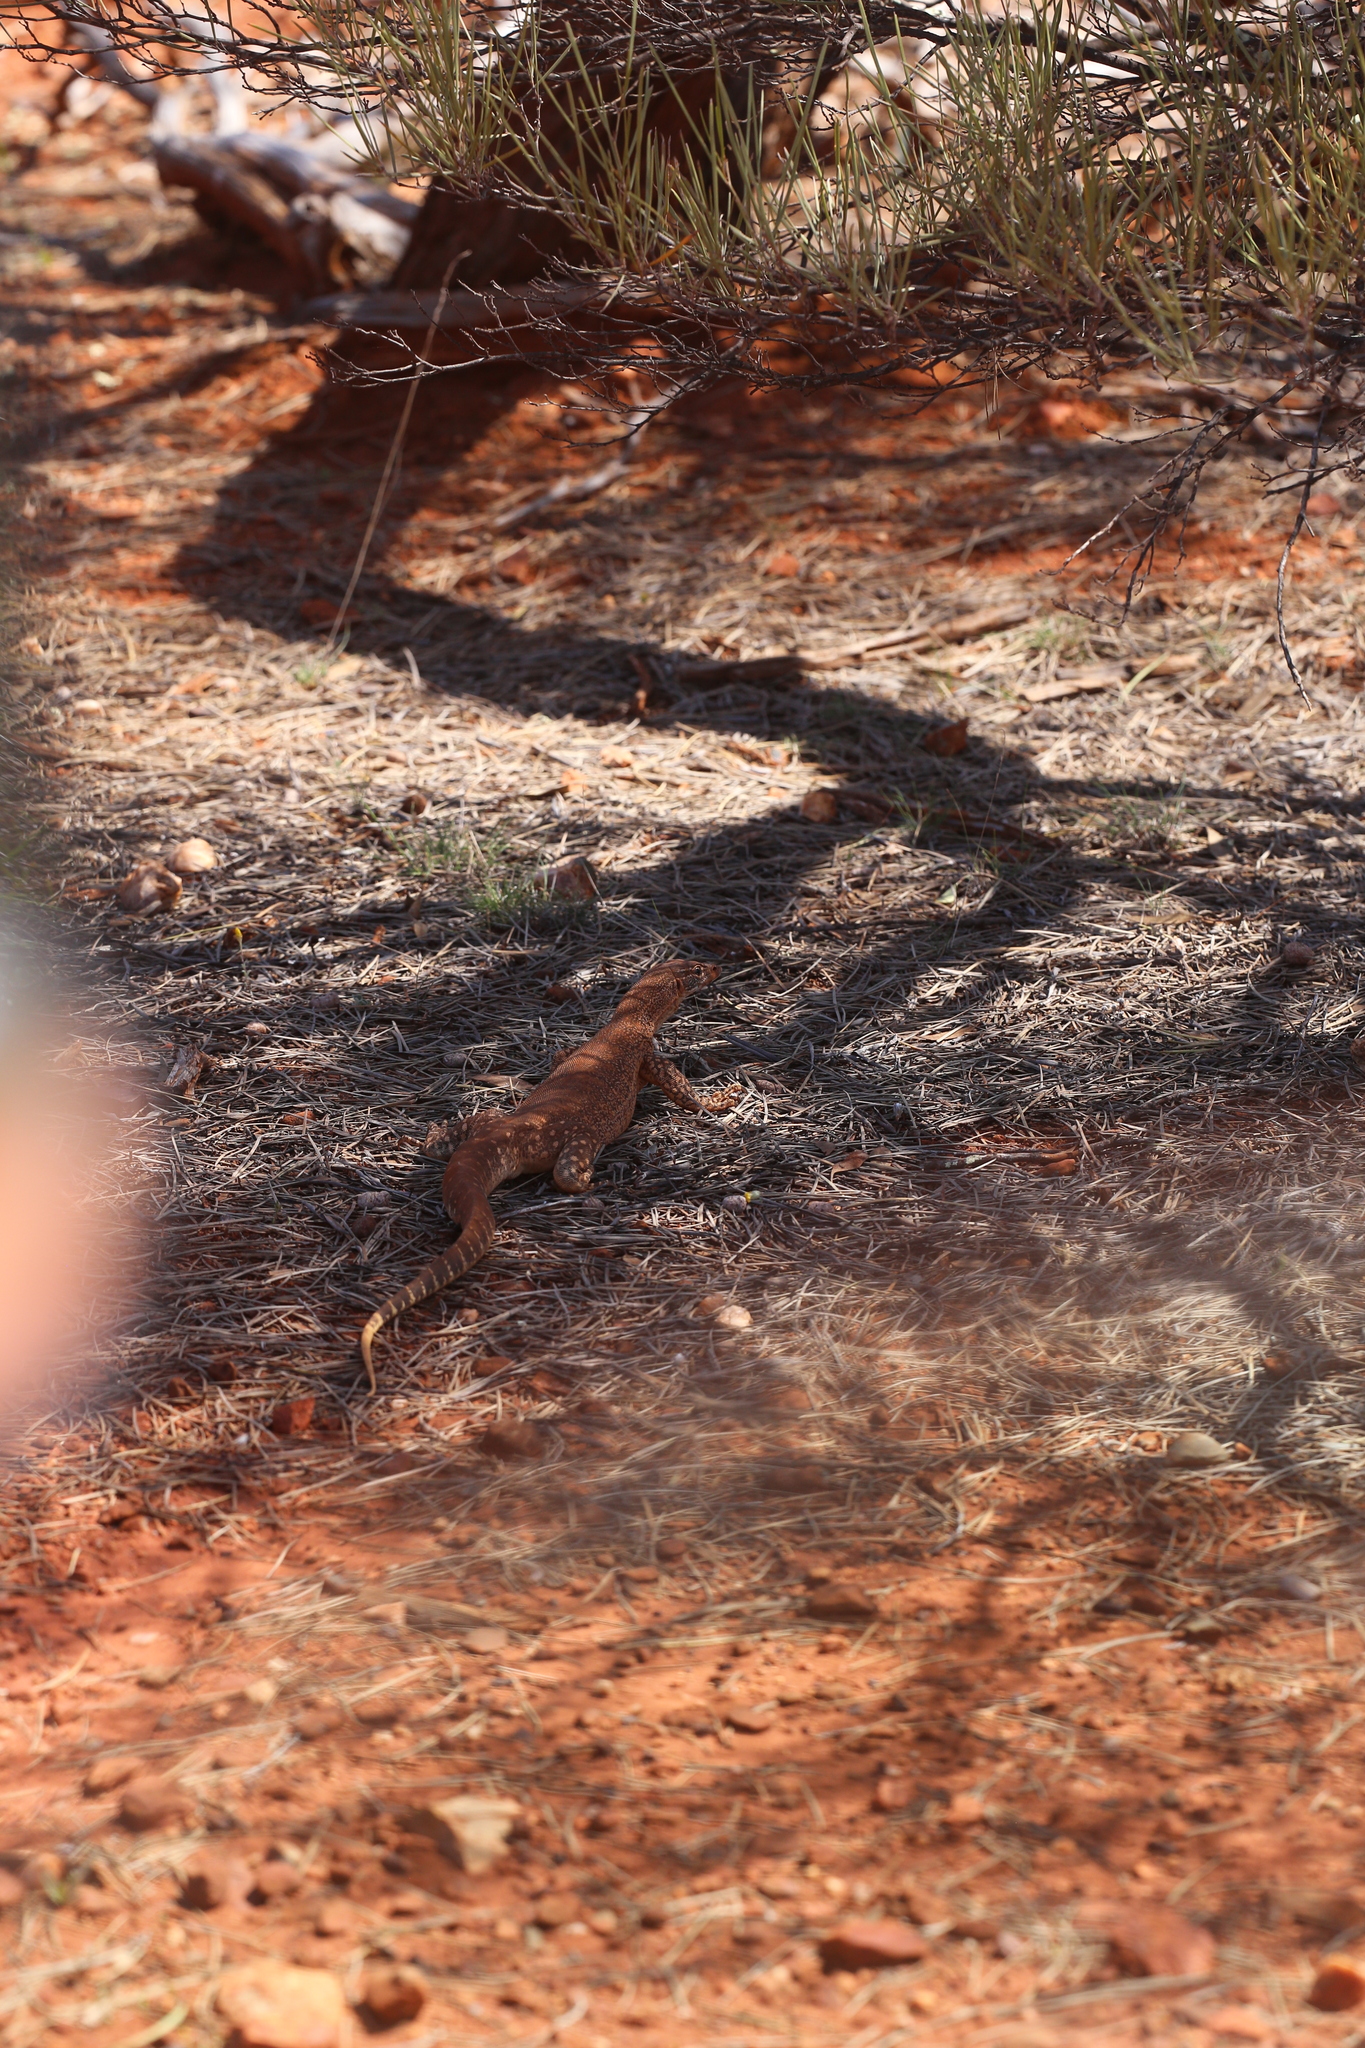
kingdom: Animalia
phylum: Chordata
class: Squamata
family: Varanidae
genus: Varanus
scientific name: Varanus gouldii
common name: Gould's goanna
